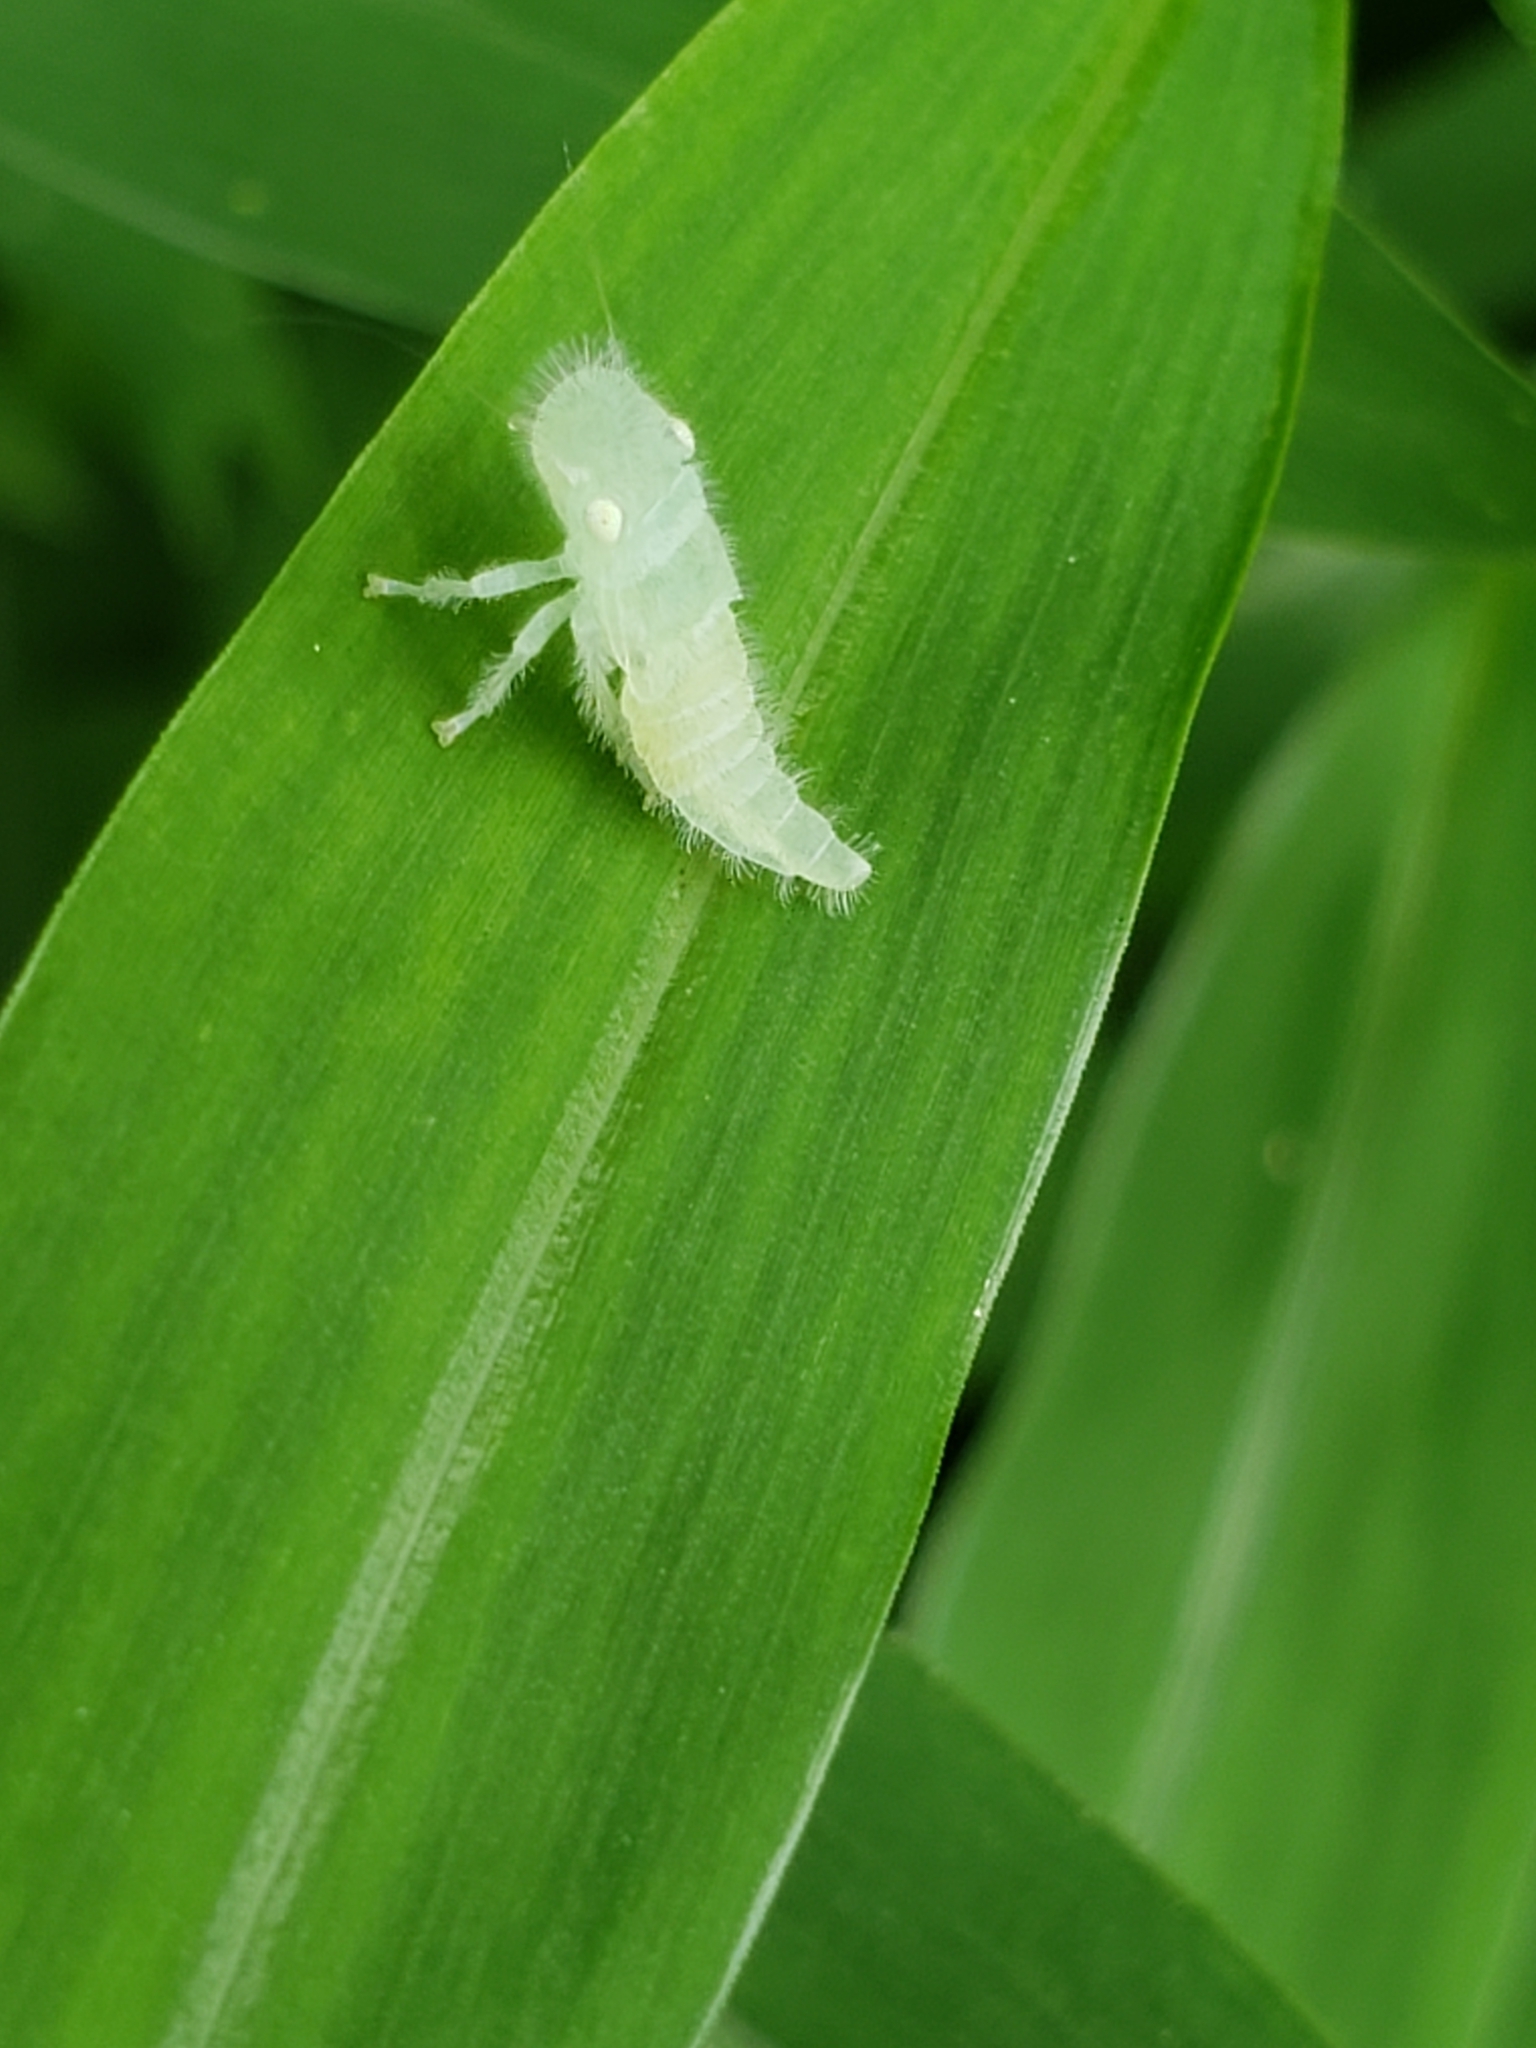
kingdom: Animalia
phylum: Arthropoda
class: Insecta
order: Hemiptera
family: Cicadellidae
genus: Paraulacizes
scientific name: Paraulacizes irrorata
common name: Speckled sharpshooter
